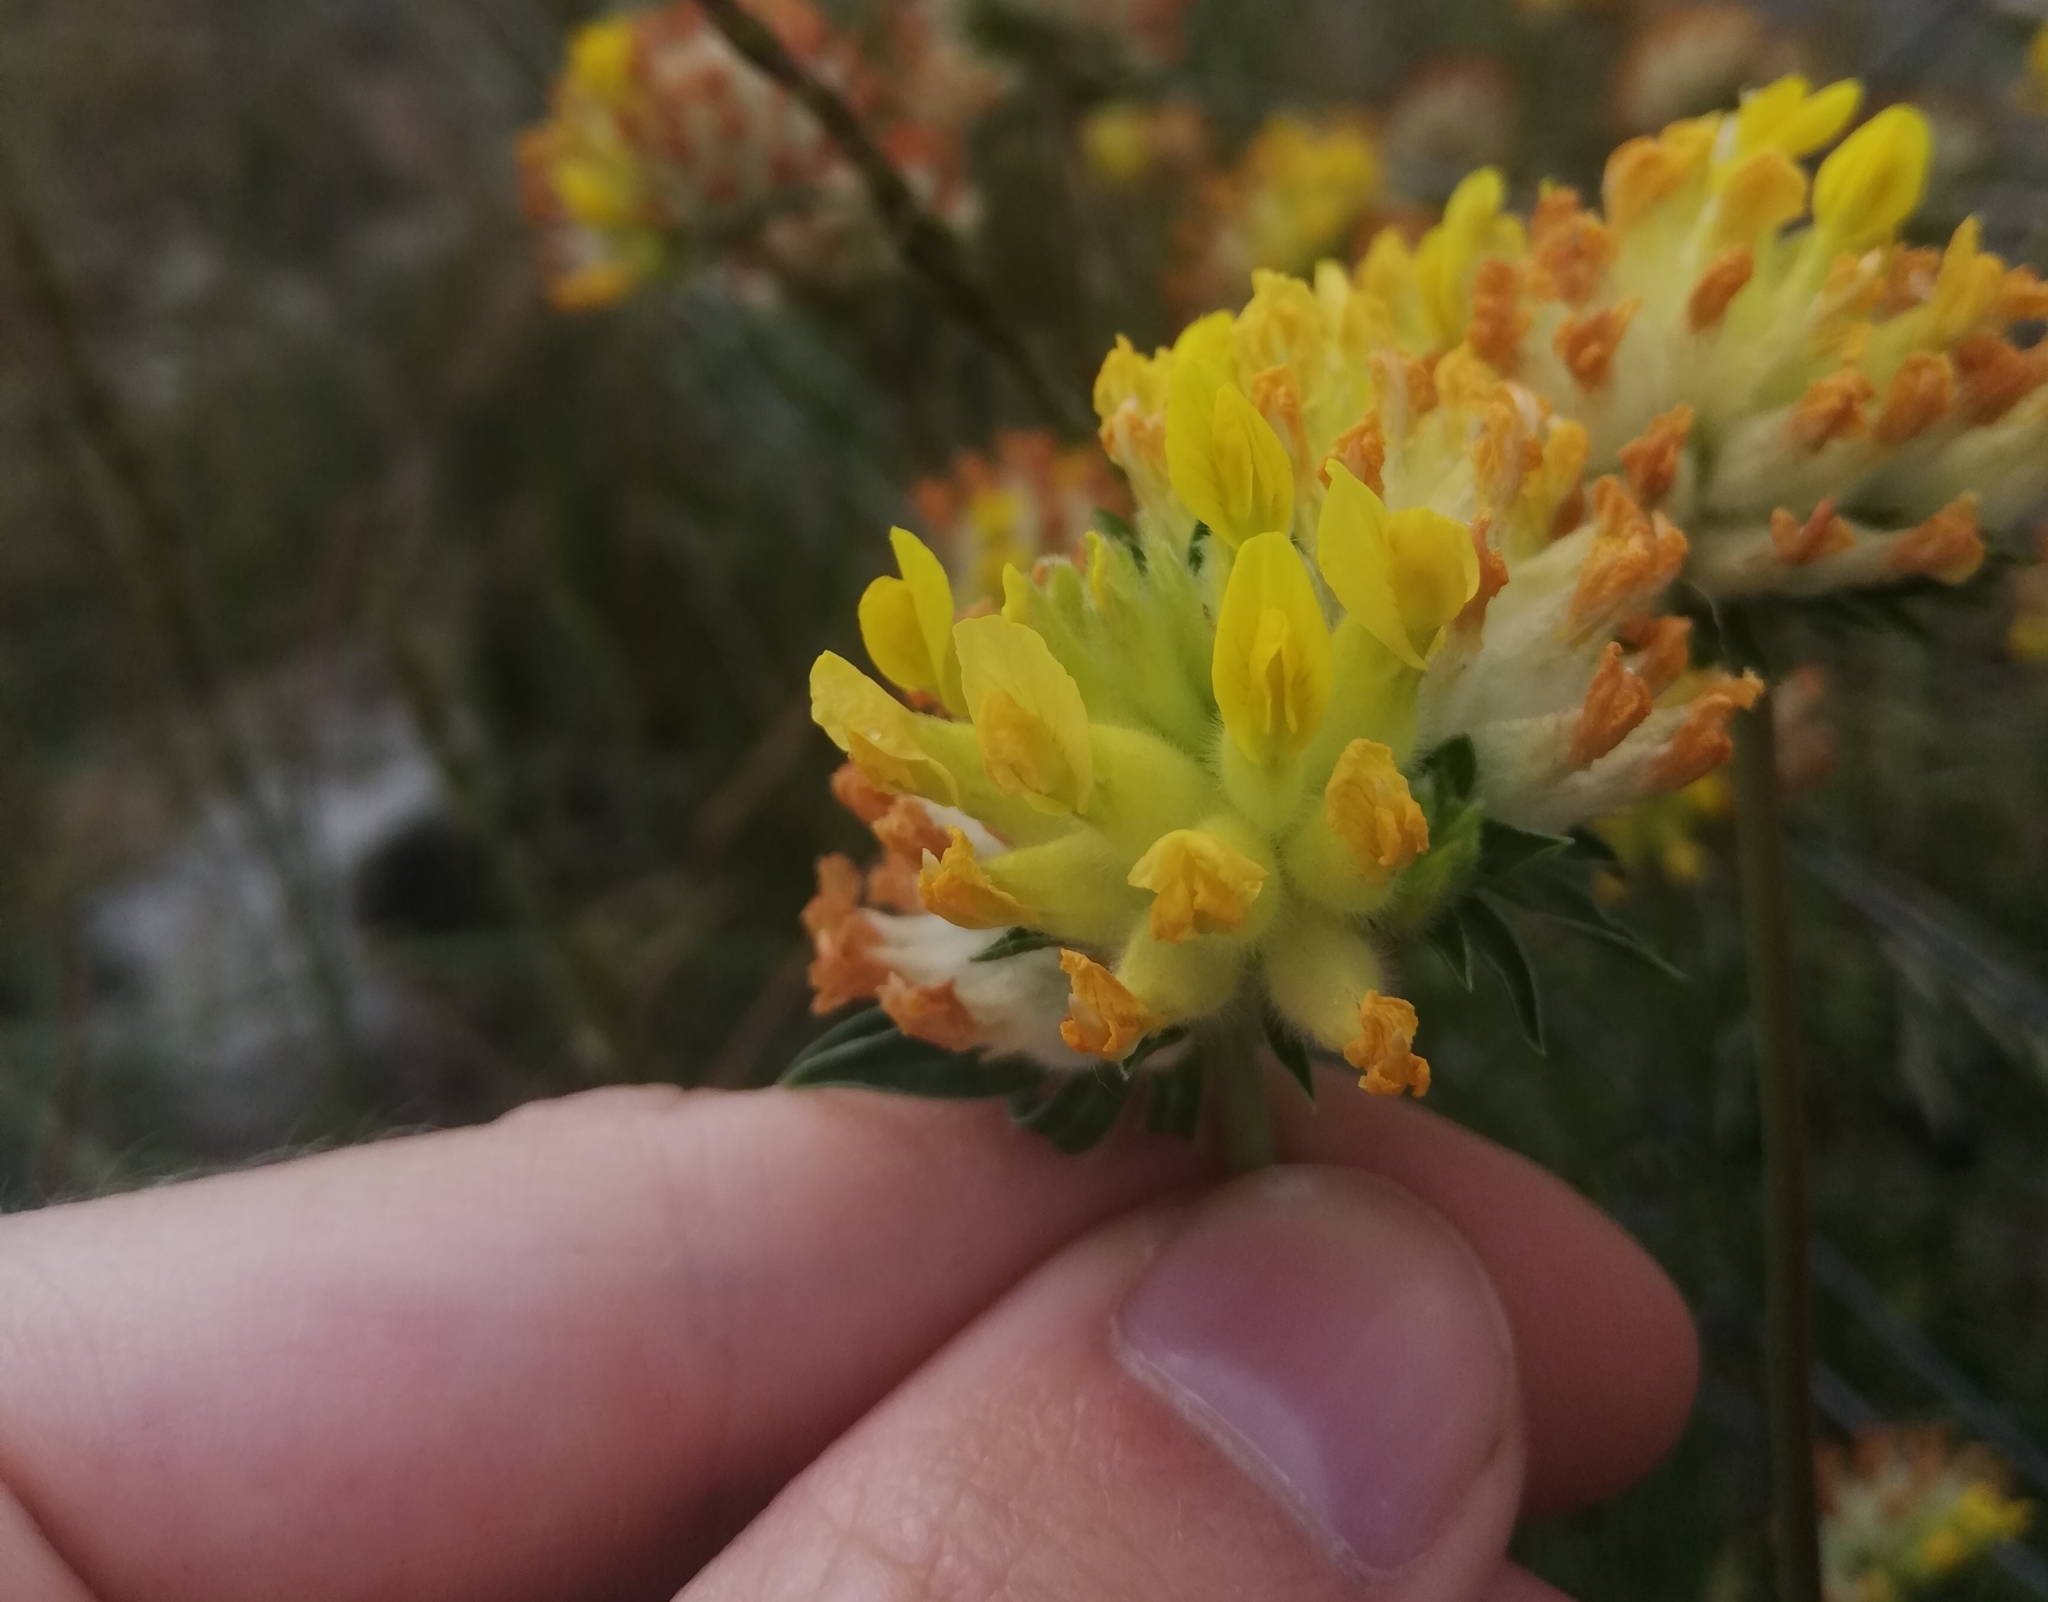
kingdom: Plantae
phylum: Tracheophyta
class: Magnoliopsida
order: Fabales
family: Fabaceae
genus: Anthyllis
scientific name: Anthyllis vulneraria
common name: Kidney vetch
